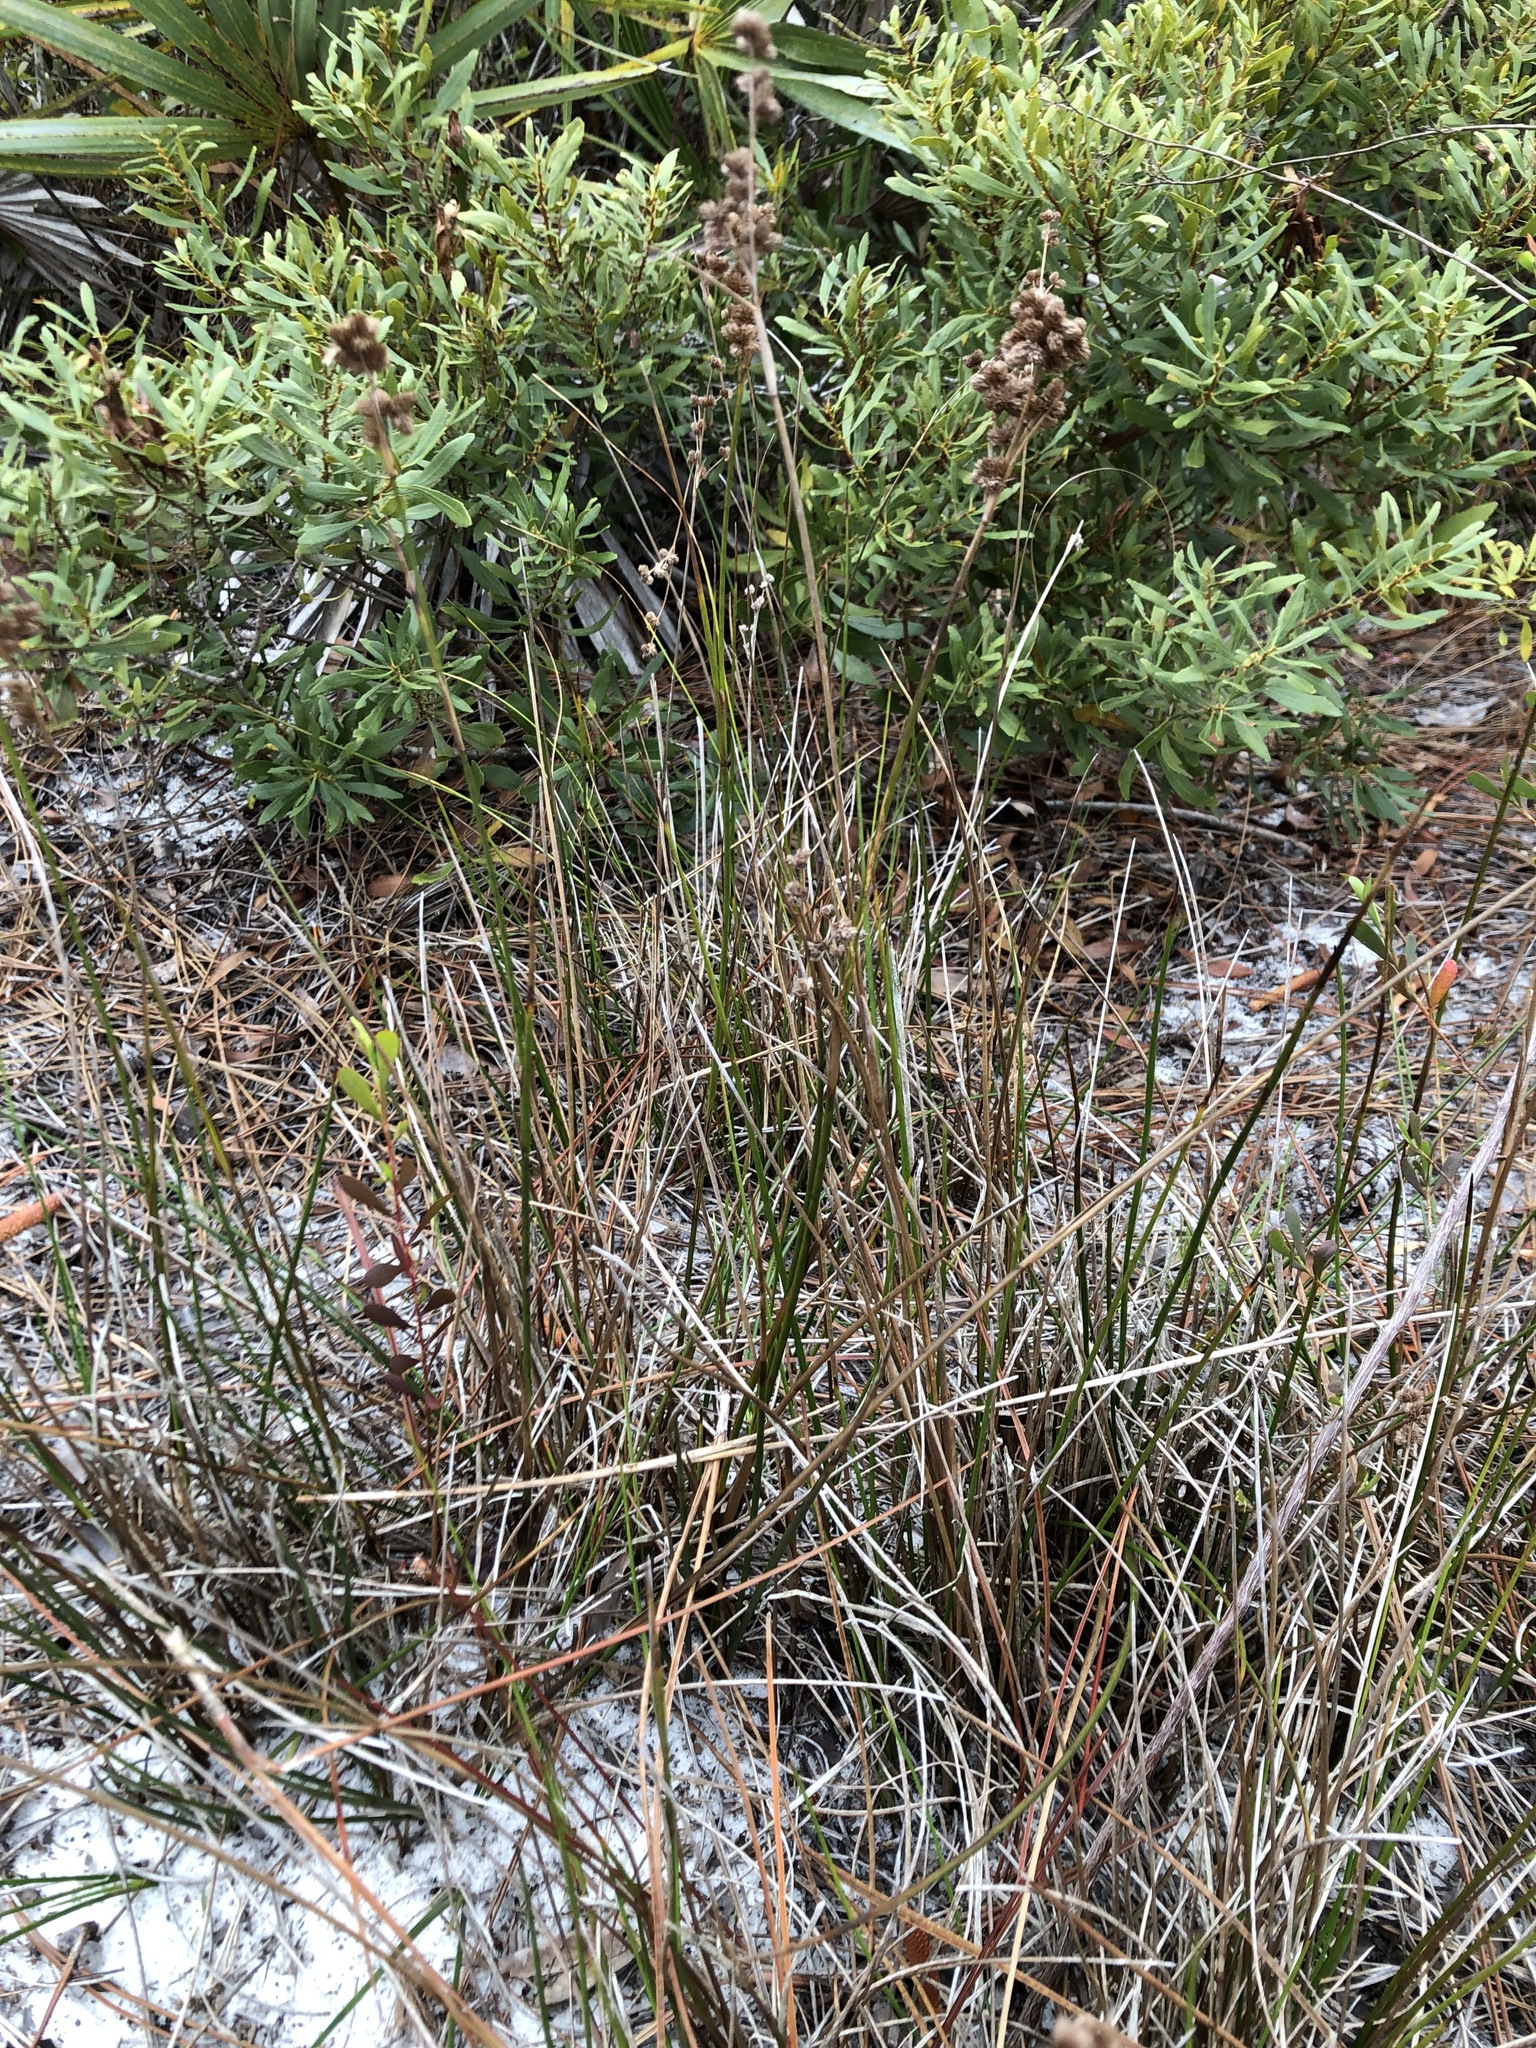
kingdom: Plantae
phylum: Tracheophyta
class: Liliopsida
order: Poales
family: Juncaceae
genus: Juncus
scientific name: Juncus scirpoides
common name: Needlepod rush
